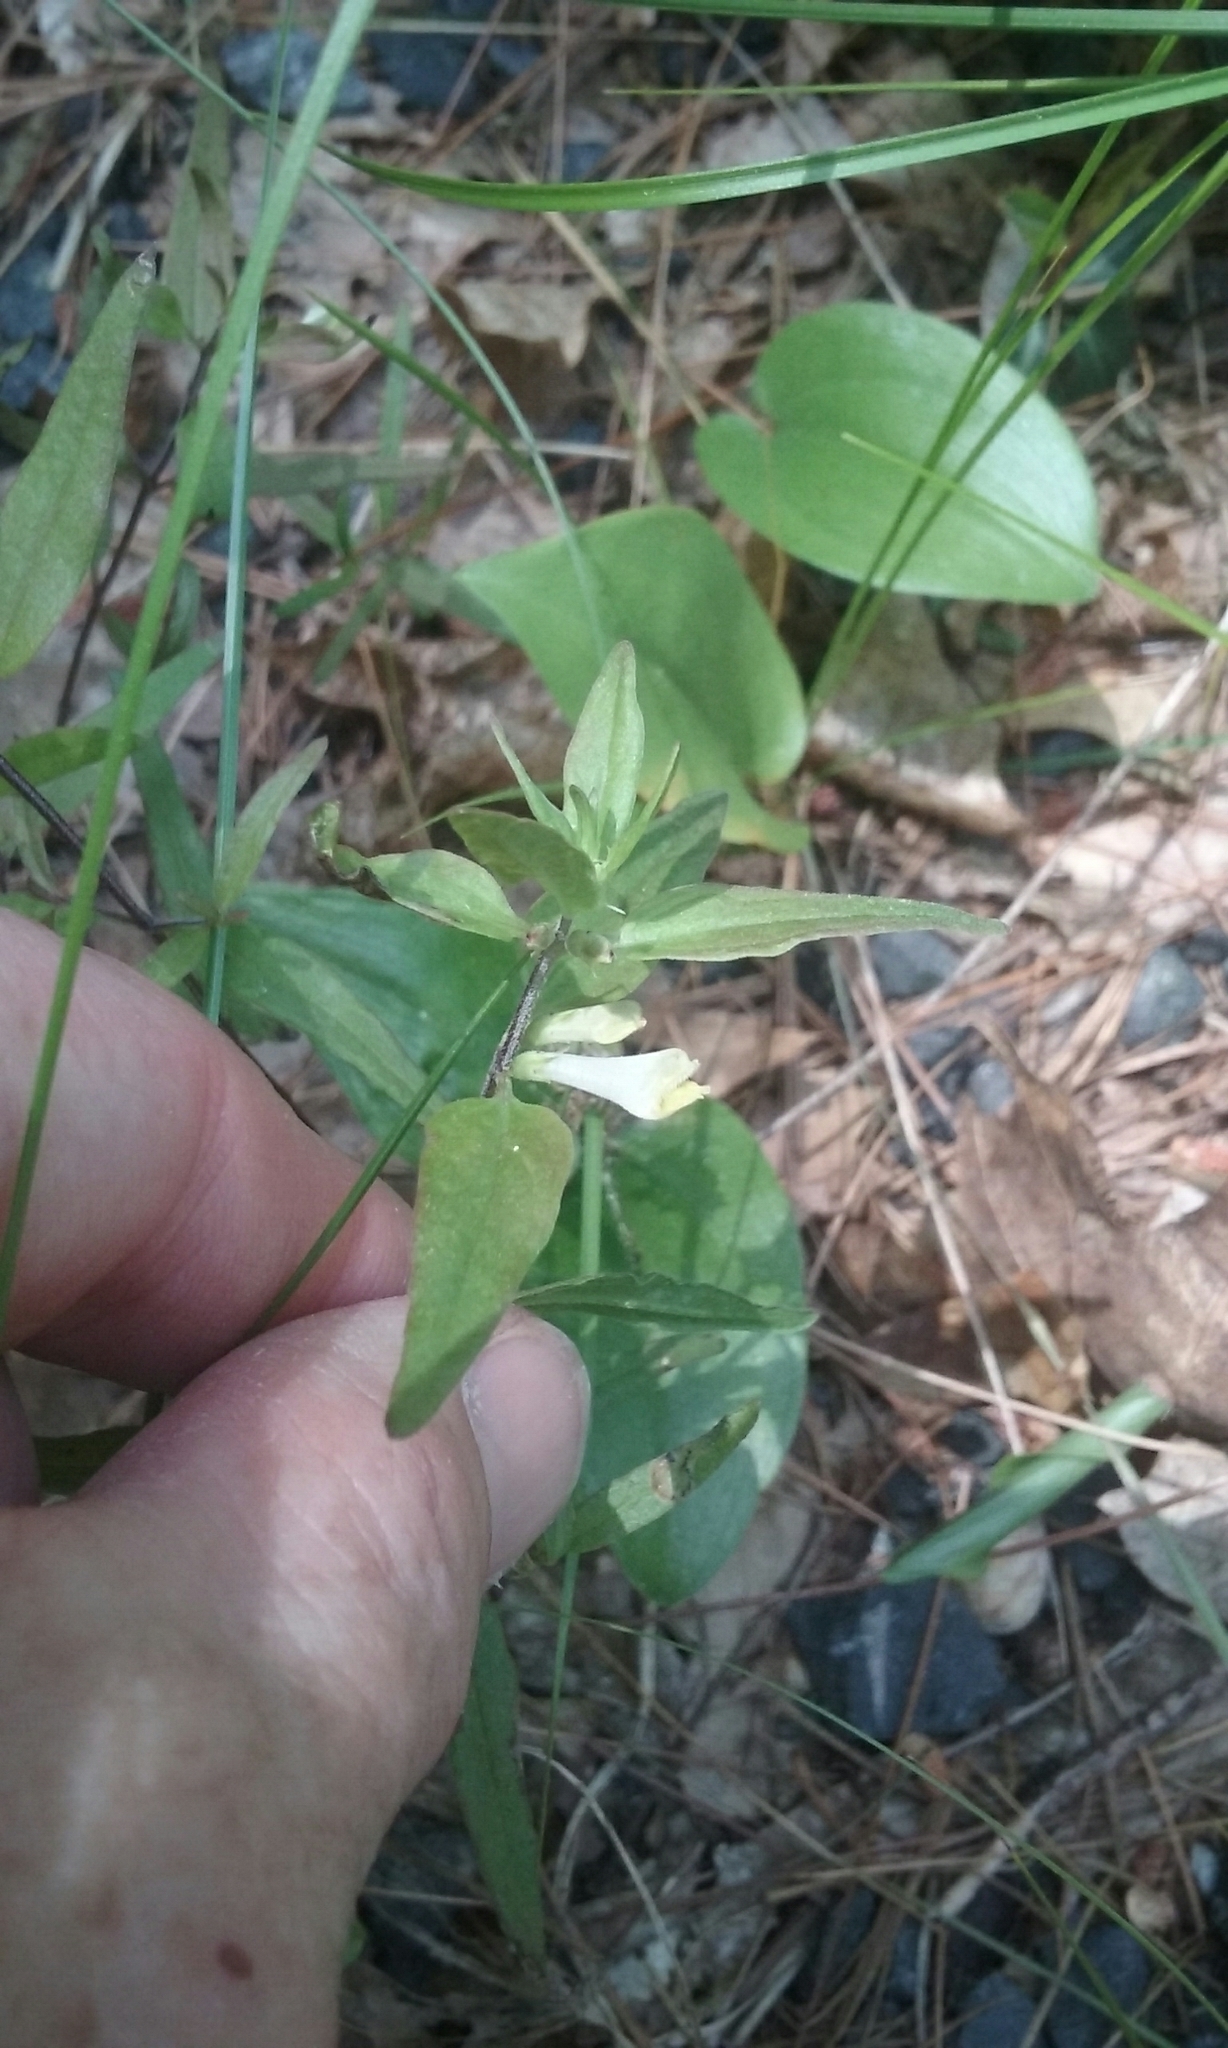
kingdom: Plantae
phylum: Tracheophyta
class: Magnoliopsida
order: Lamiales
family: Orobanchaceae
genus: Melampyrum
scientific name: Melampyrum lineare
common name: American cow-wheat
